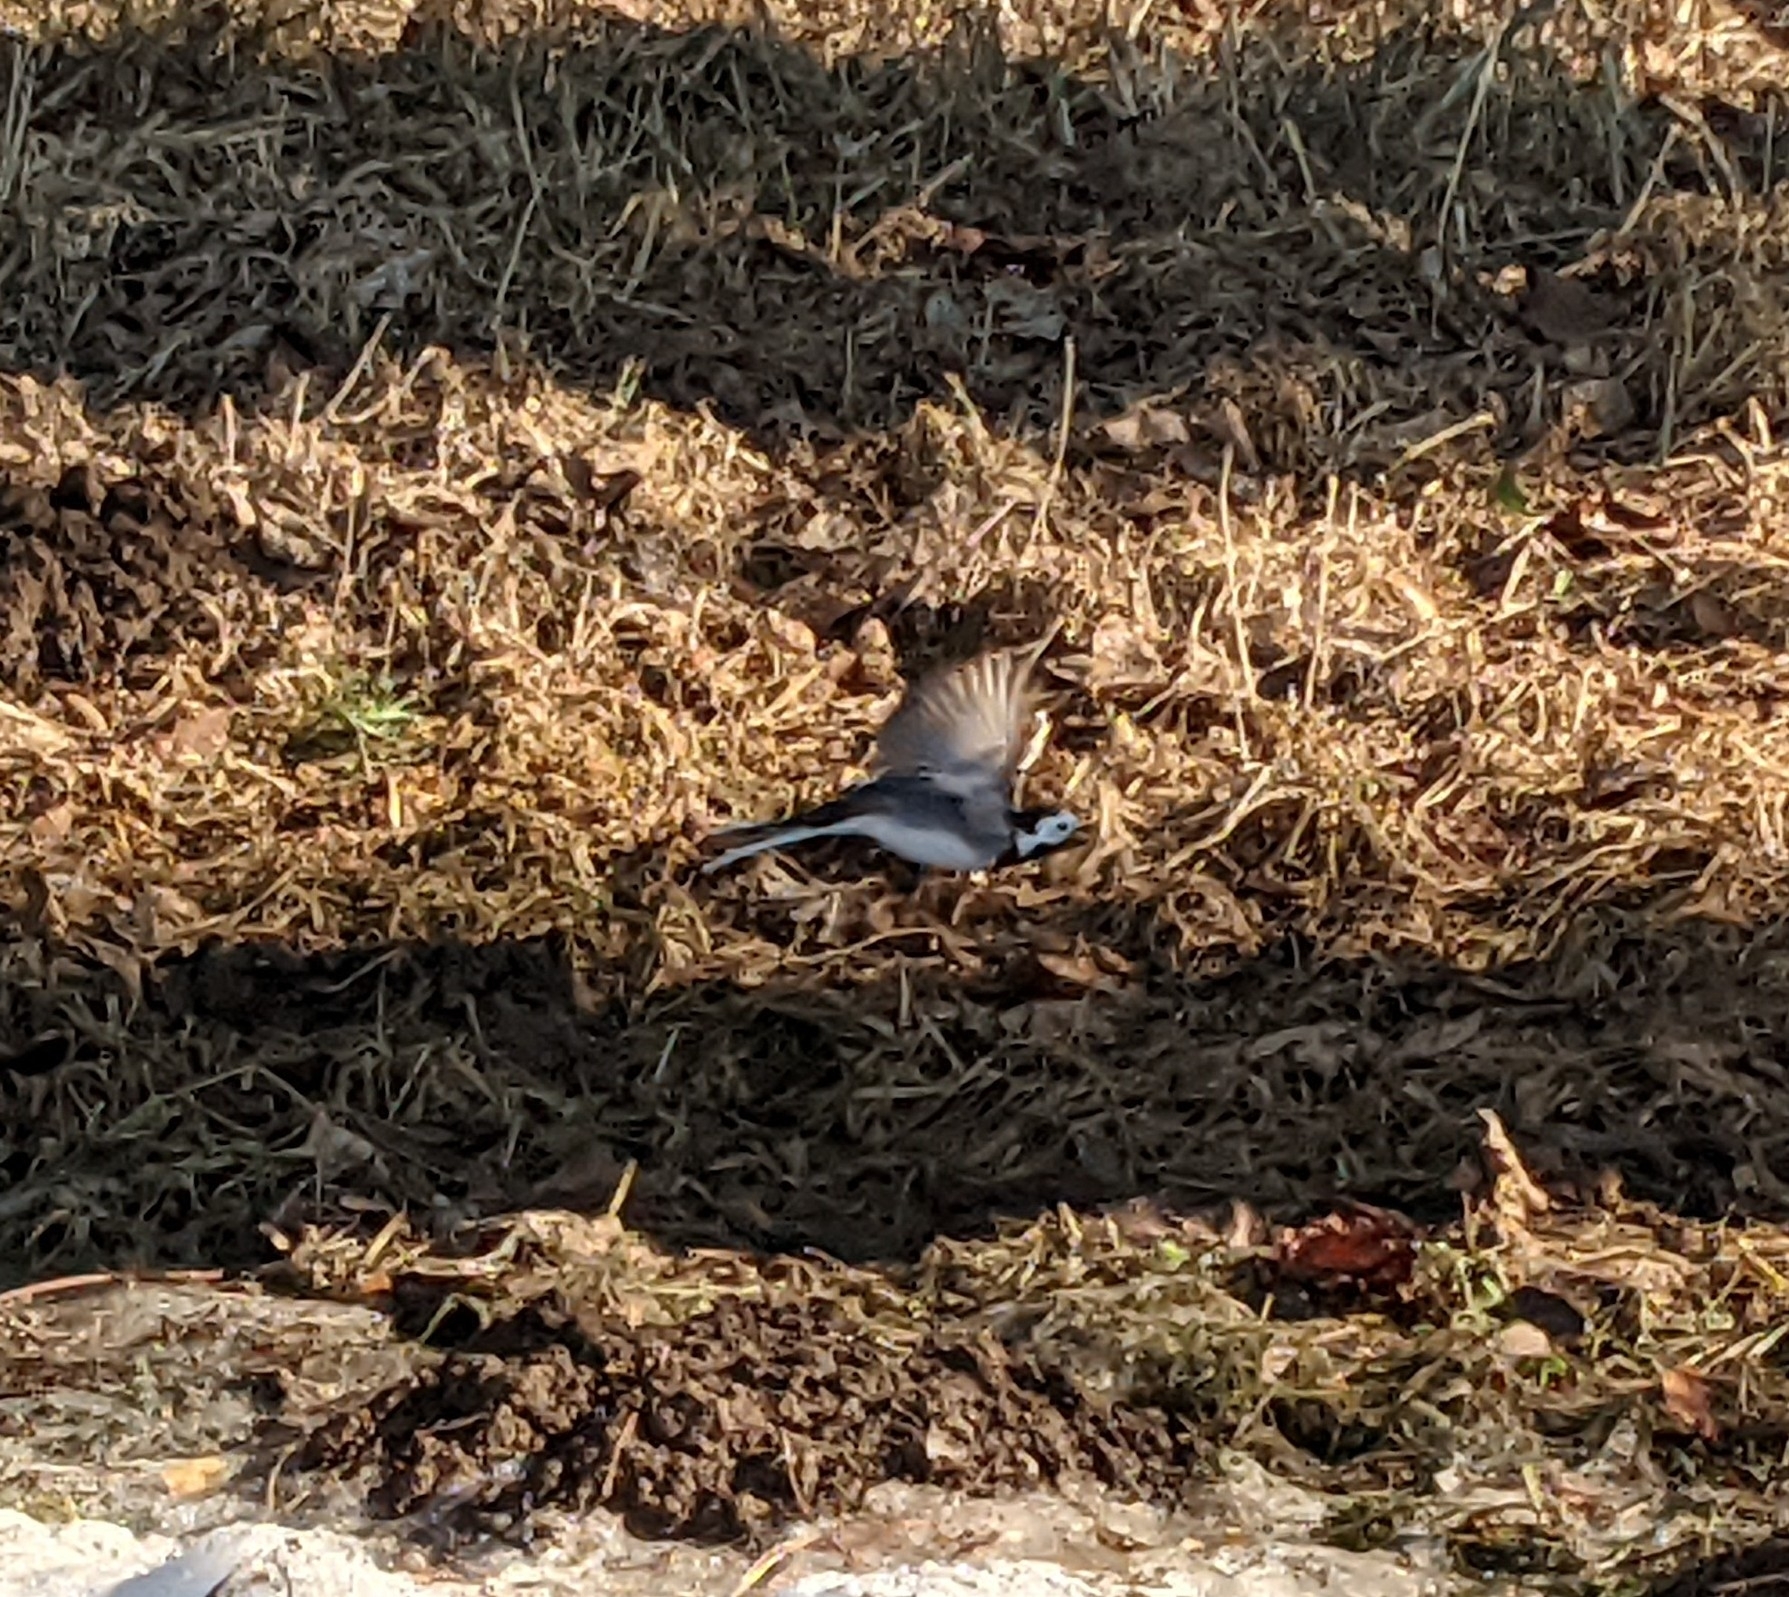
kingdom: Animalia
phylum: Chordata
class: Aves
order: Passeriformes
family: Motacillidae
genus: Motacilla
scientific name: Motacilla alba
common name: White wagtail
